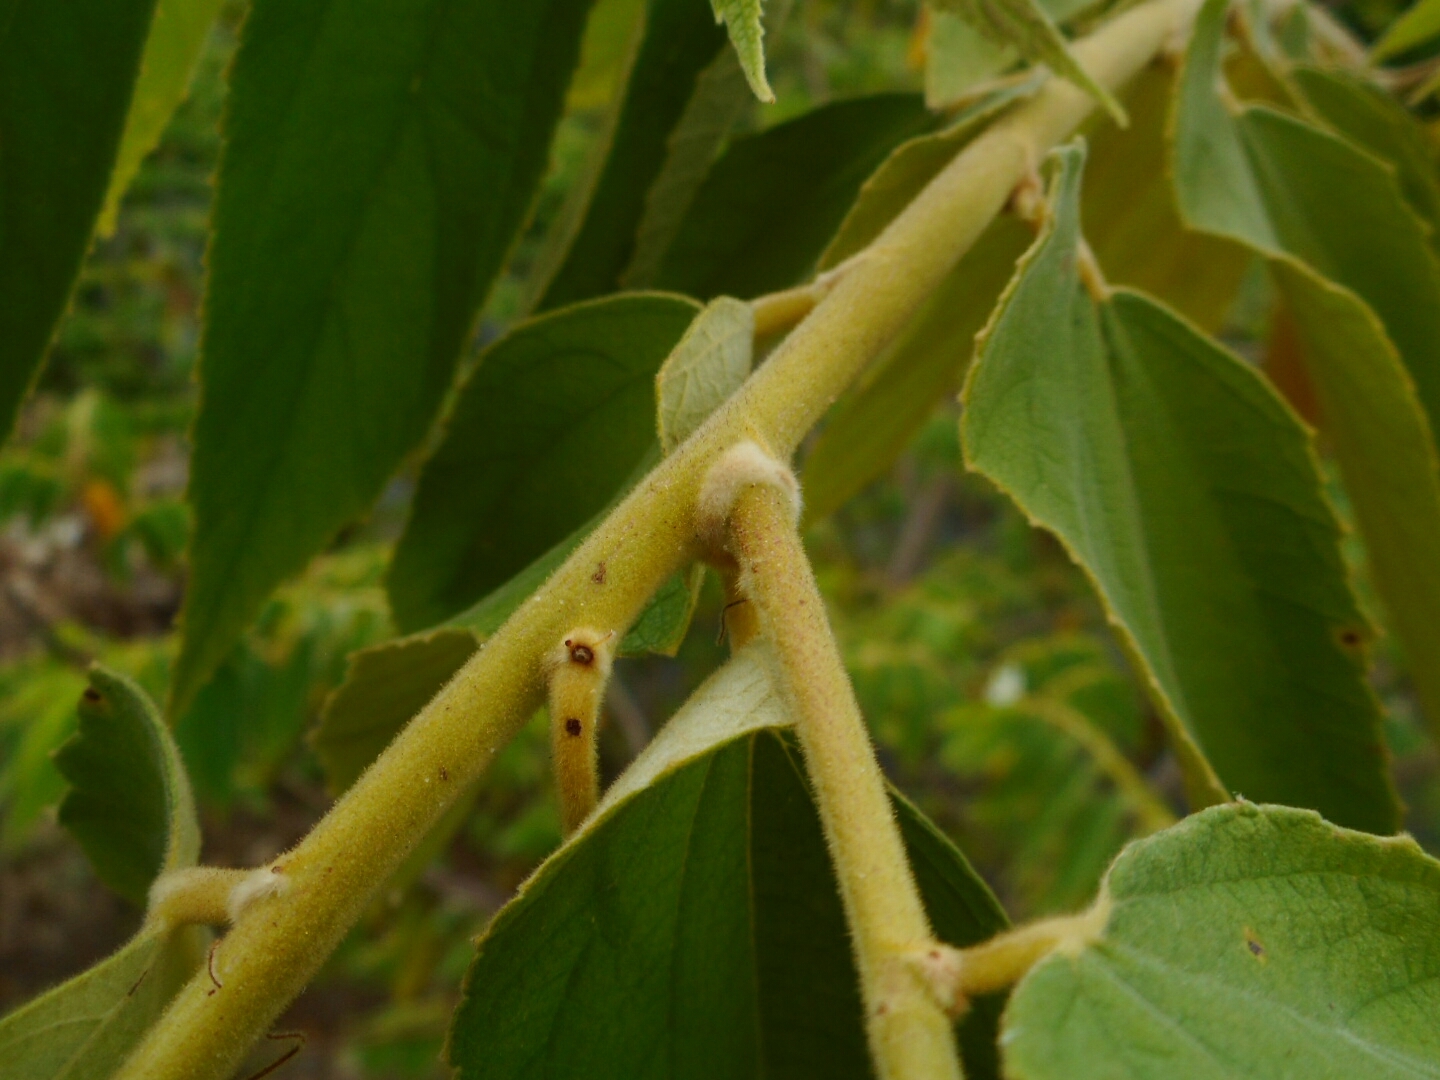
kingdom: Plantae
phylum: Tracheophyta
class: Magnoliopsida
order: Malvales
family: Muntingiaceae
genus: Muntingia
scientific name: Muntingia calabura
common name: Strawberrytree
